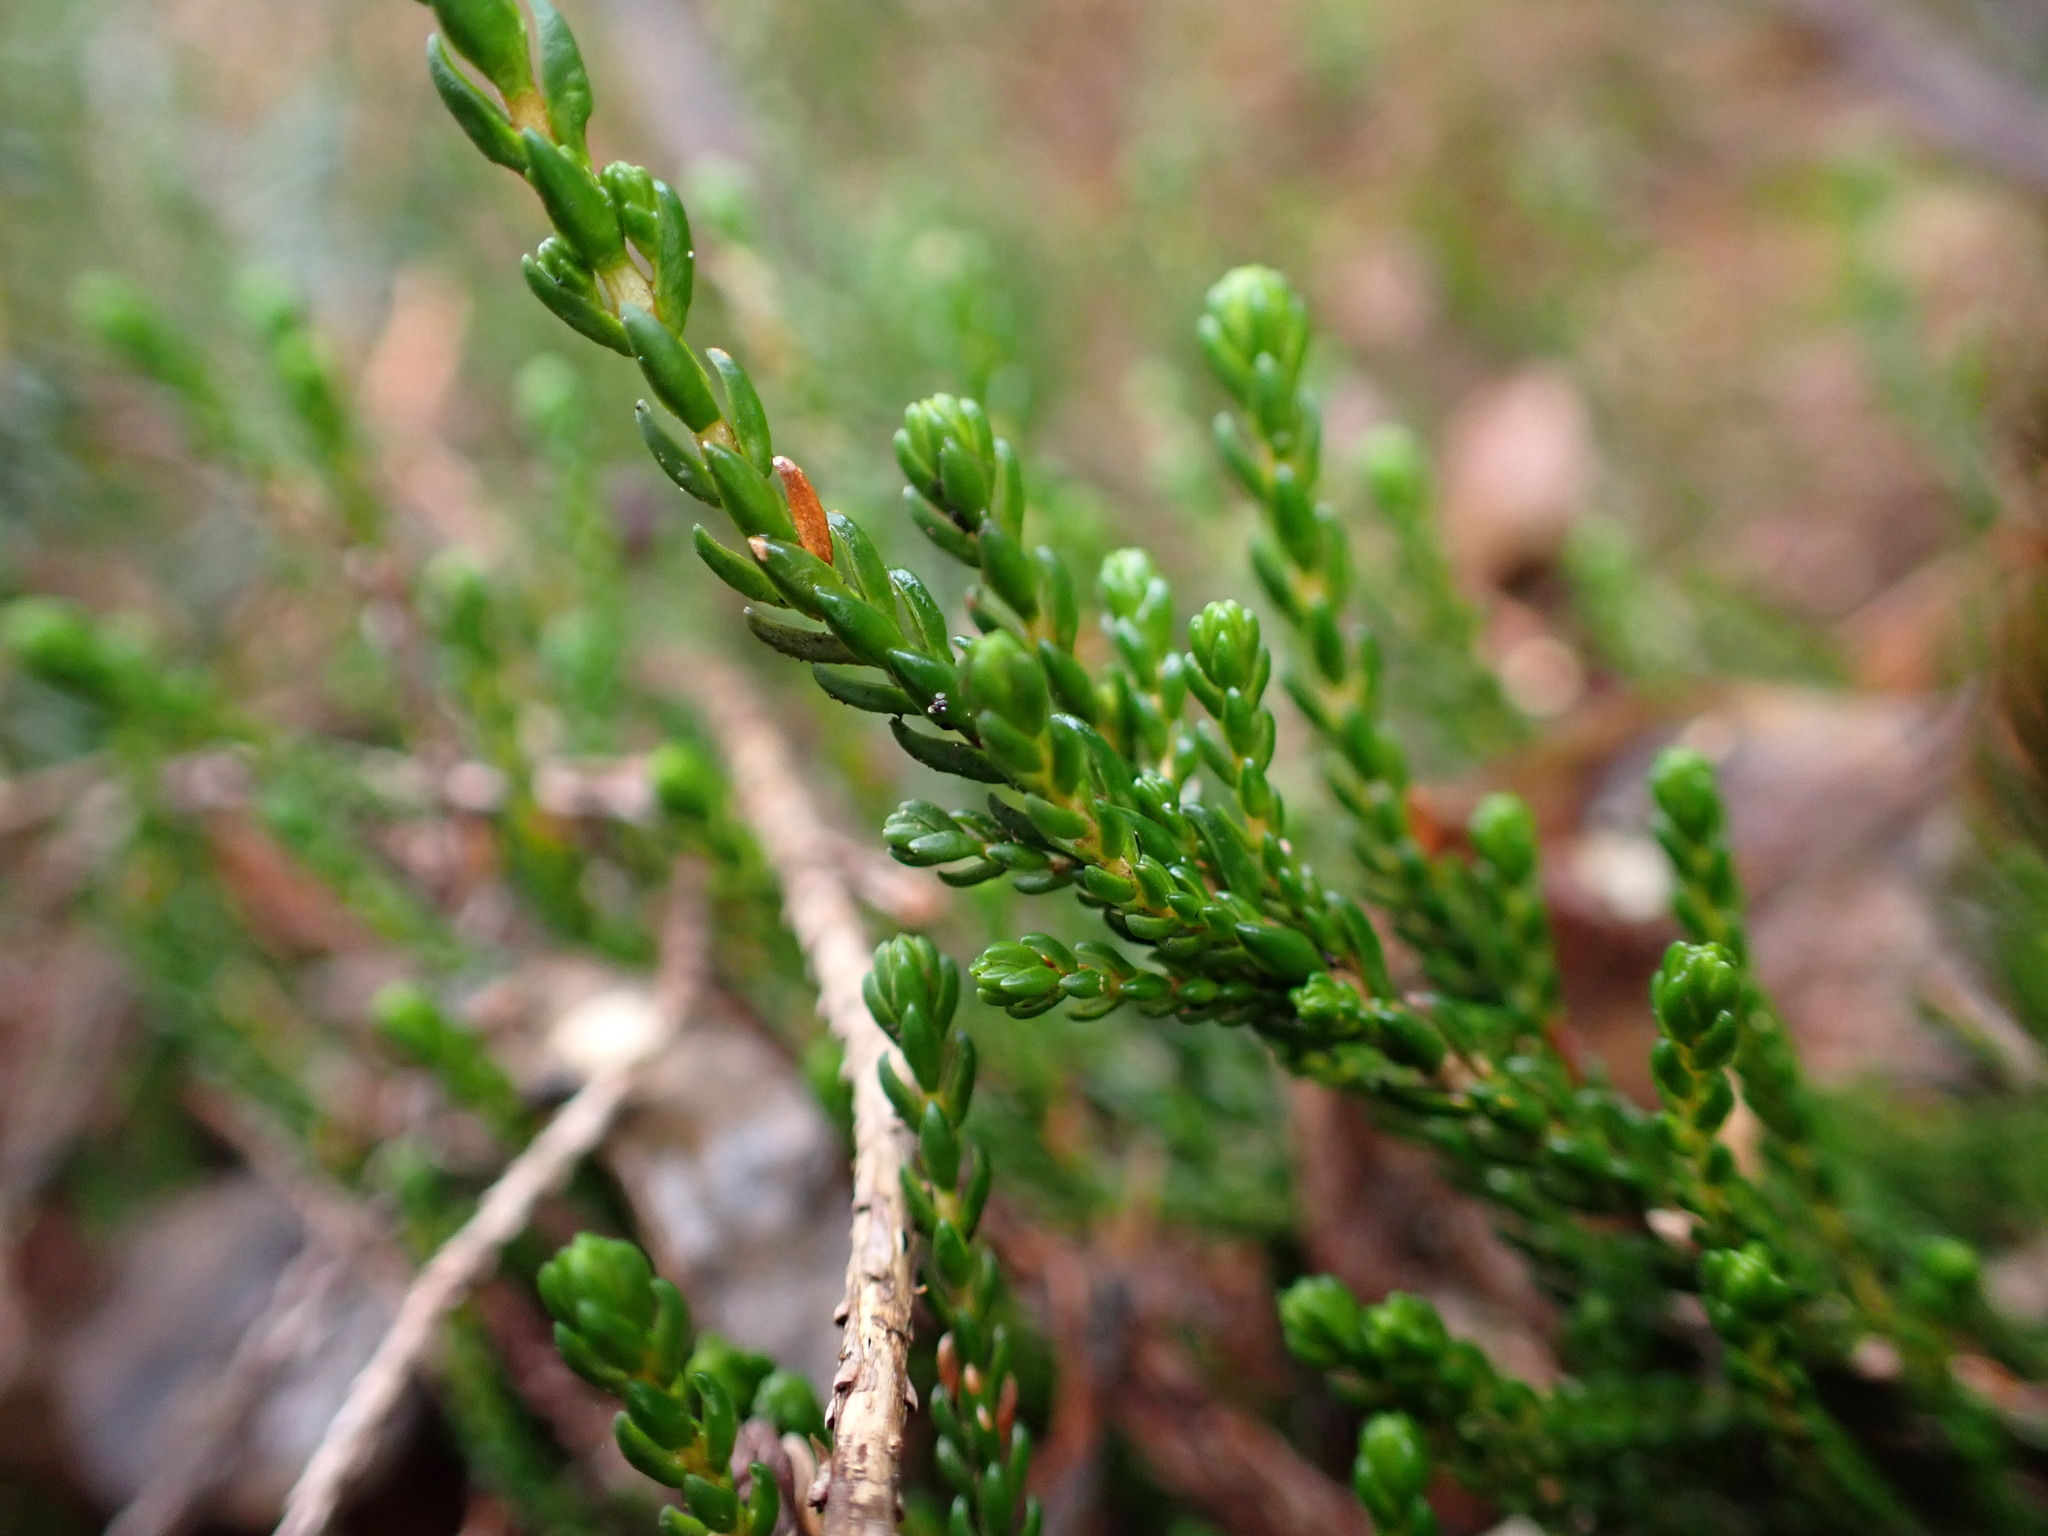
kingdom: Plantae
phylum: Tracheophyta
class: Magnoliopsida
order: Ericales
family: Ericaceae
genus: Cassiope
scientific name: Cassiope mertensiana
